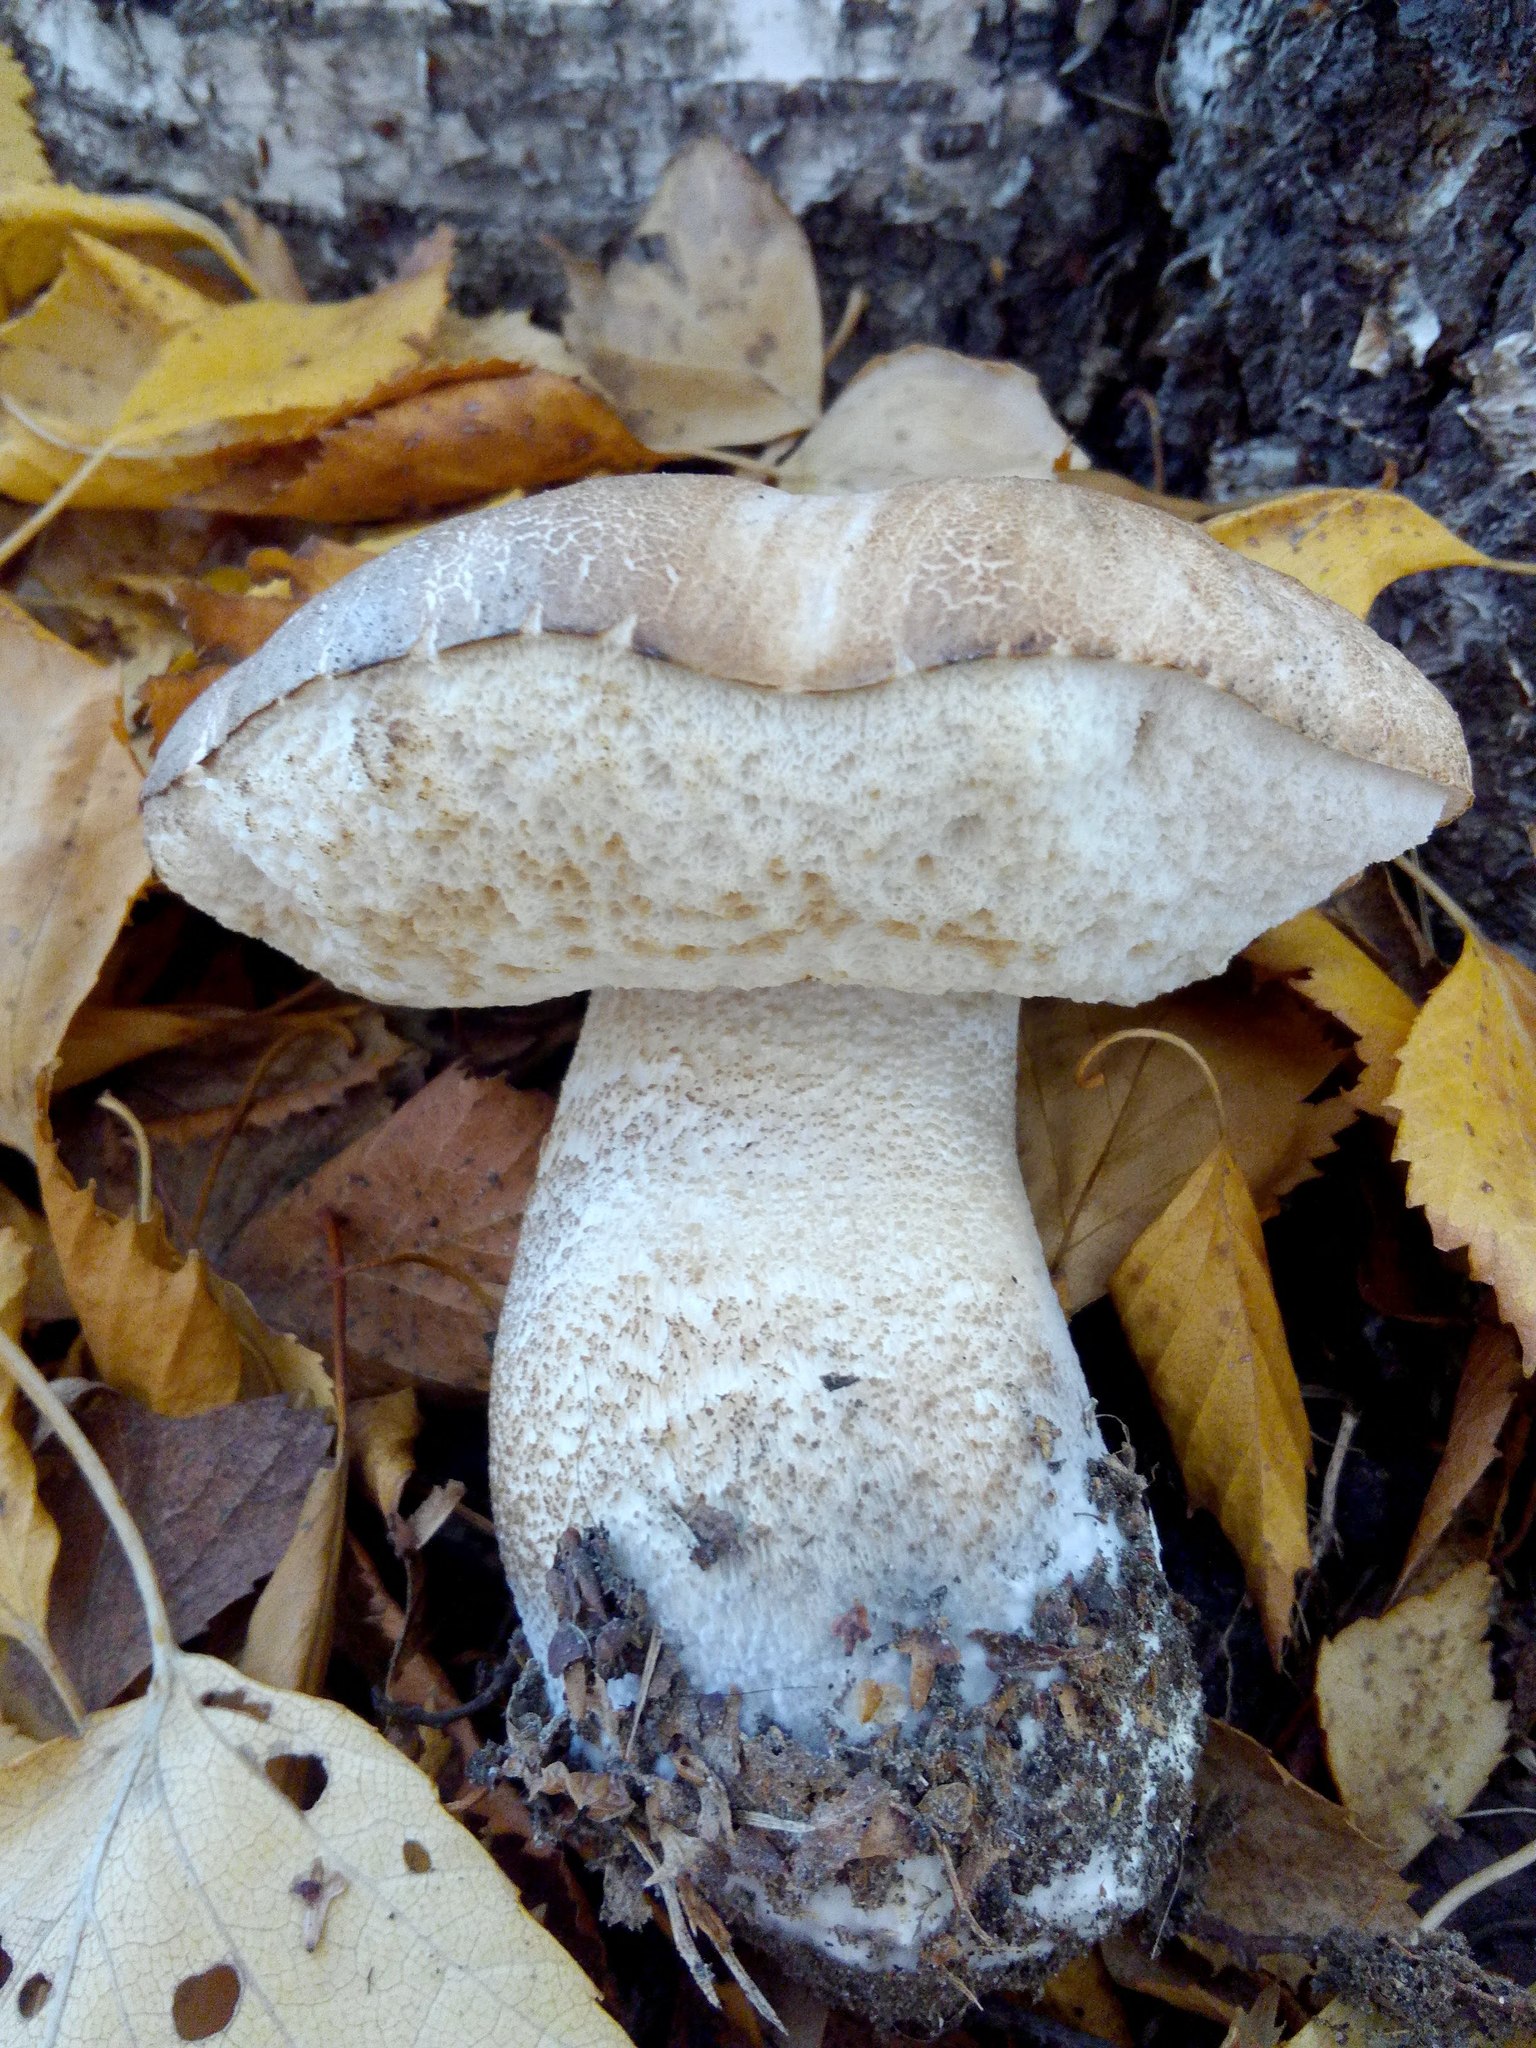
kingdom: Fungi
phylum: Basidiomycota
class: Agaricomycetes
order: Boletales
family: Boletaceae
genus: Leccinum
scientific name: Leccinum scabrum
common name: Blushing bolete
